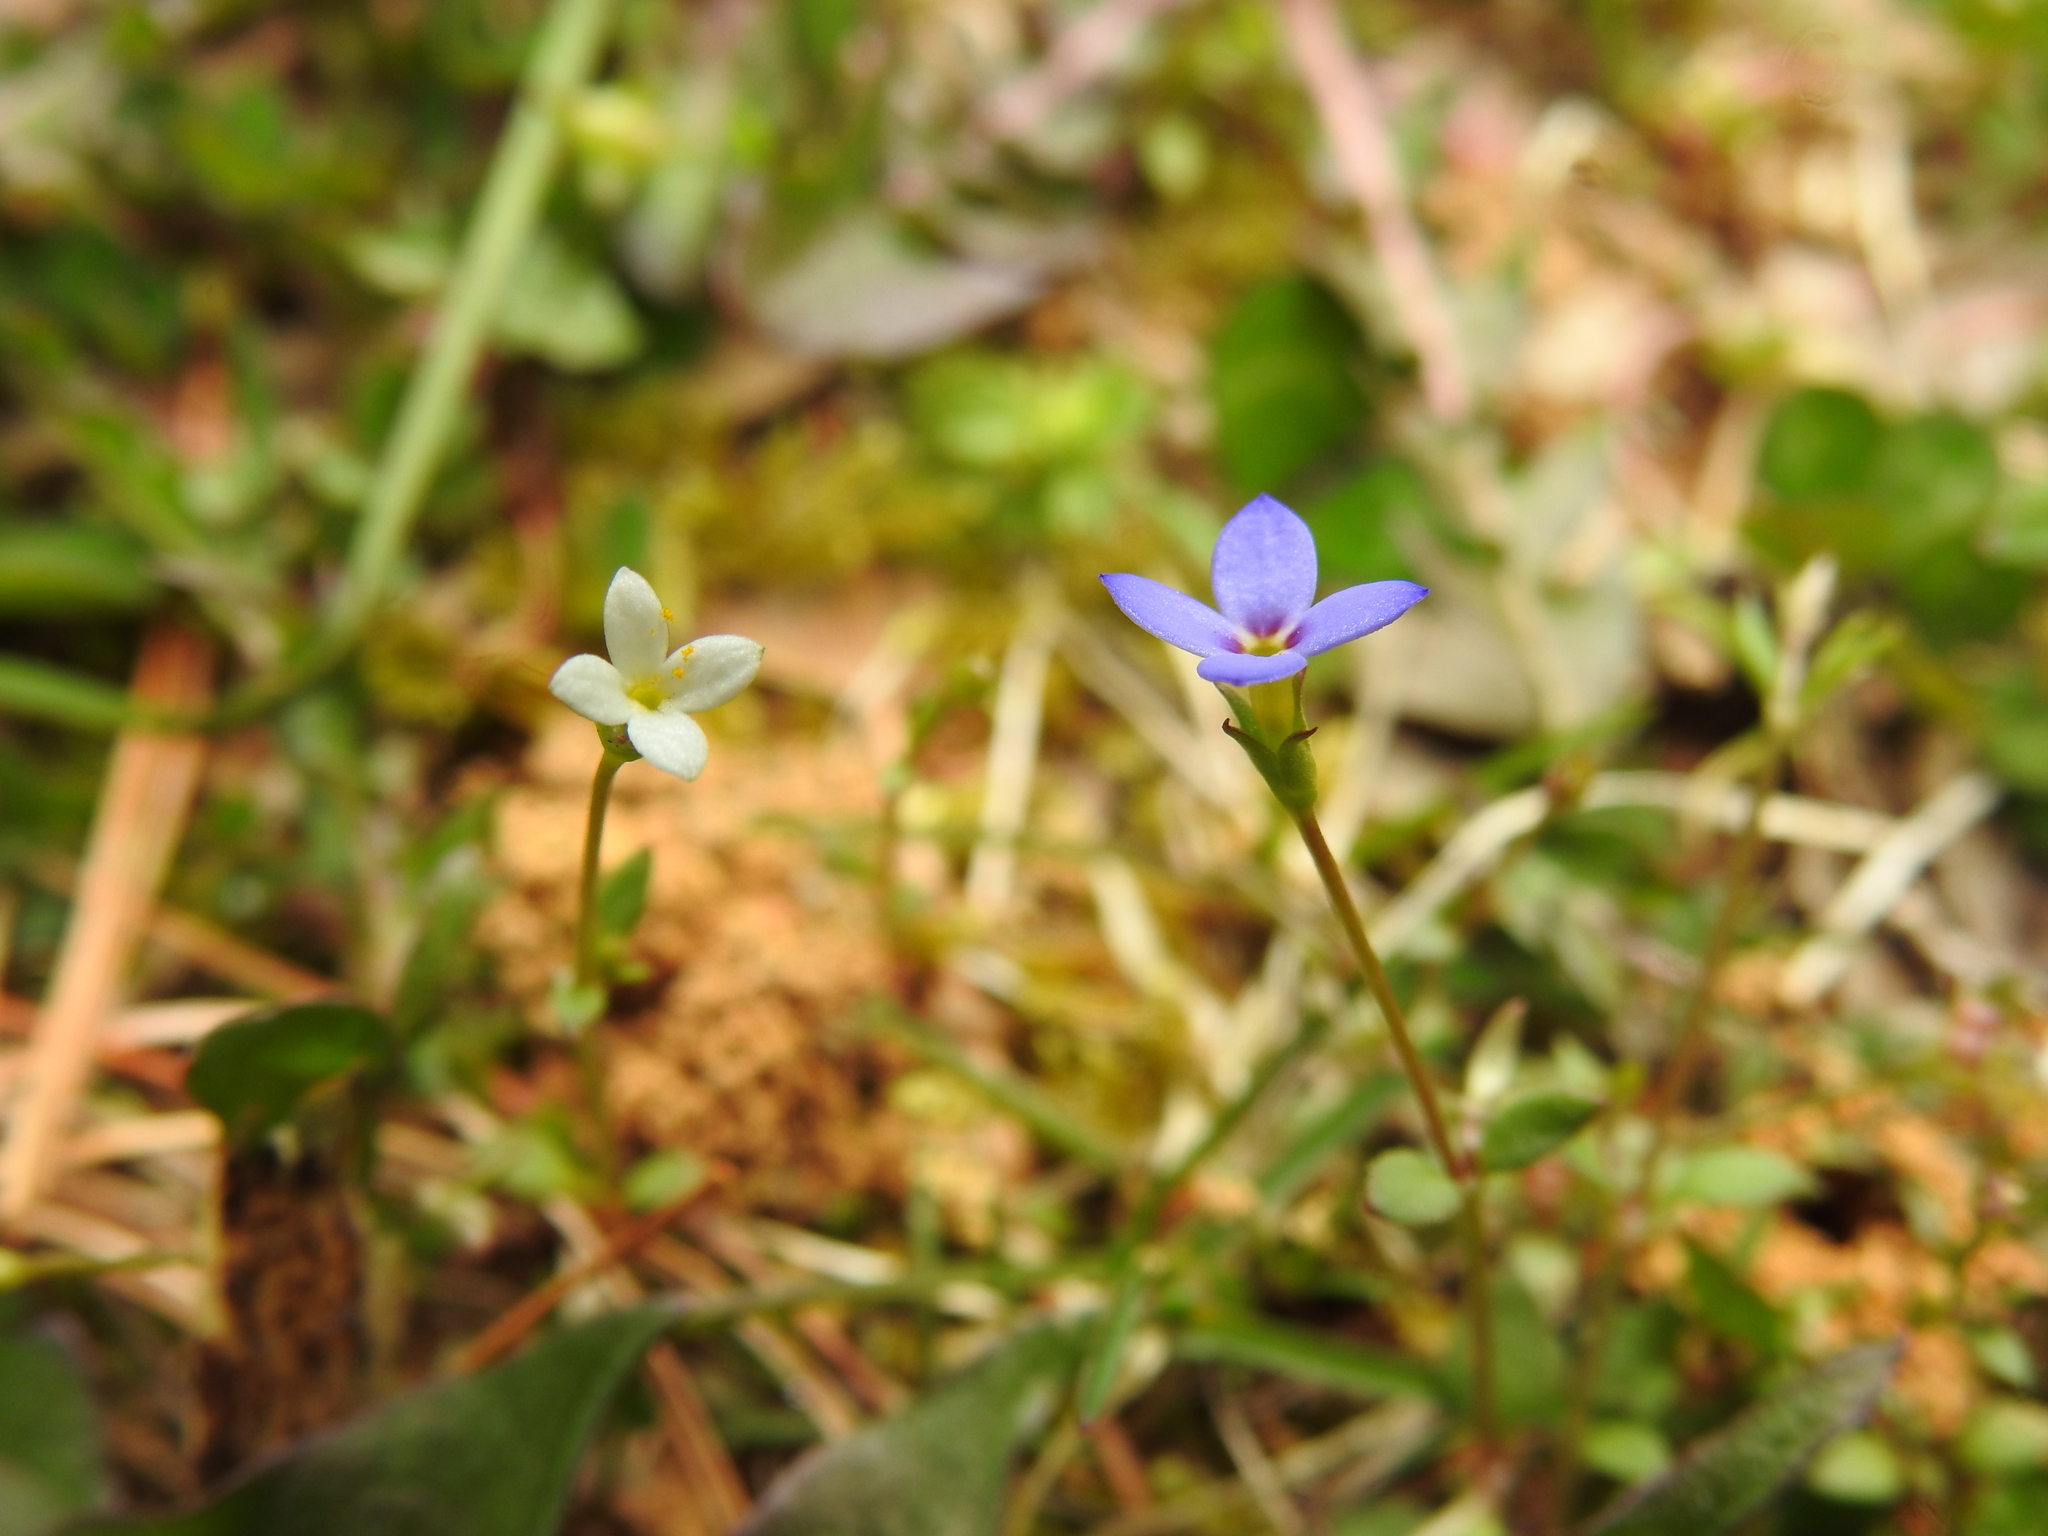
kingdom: Plantae
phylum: Tracheophyta
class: Magnoliopsida
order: Gentianales
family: Rubiaceae
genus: Houstonia
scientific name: Houstonia pusilla
